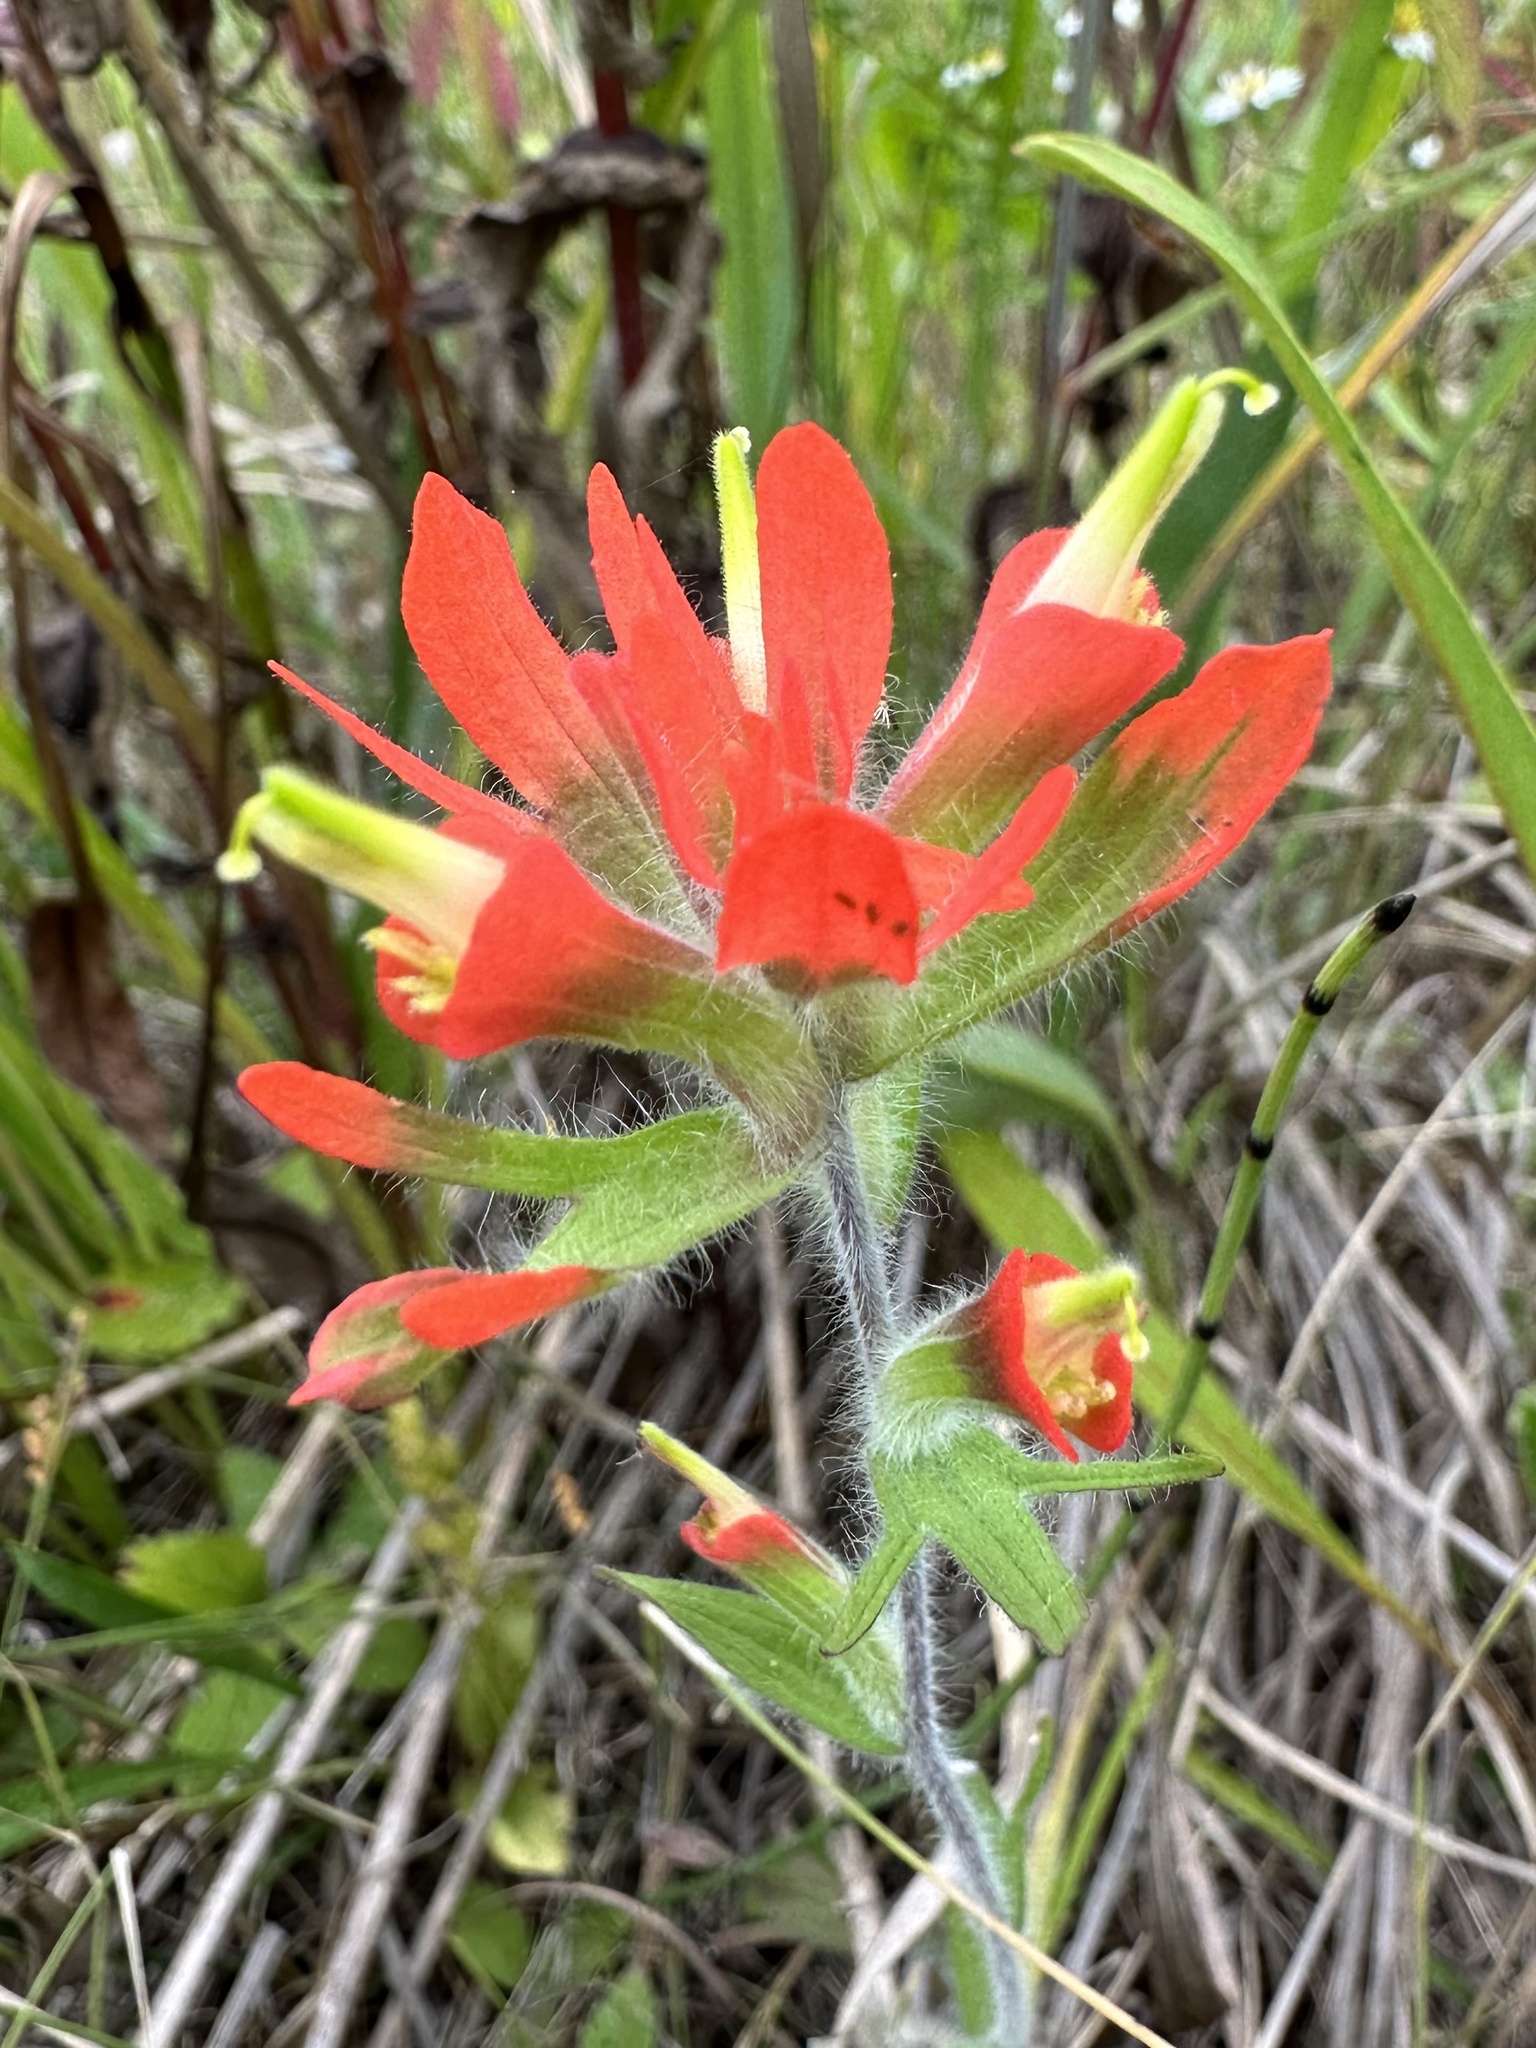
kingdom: Plantae
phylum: Tracheophyta
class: Magnoliopsida
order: Lamiales
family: Orobanchaceae
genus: Castilleja
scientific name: Castilleja coccinea
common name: Scarlet paintbrush
